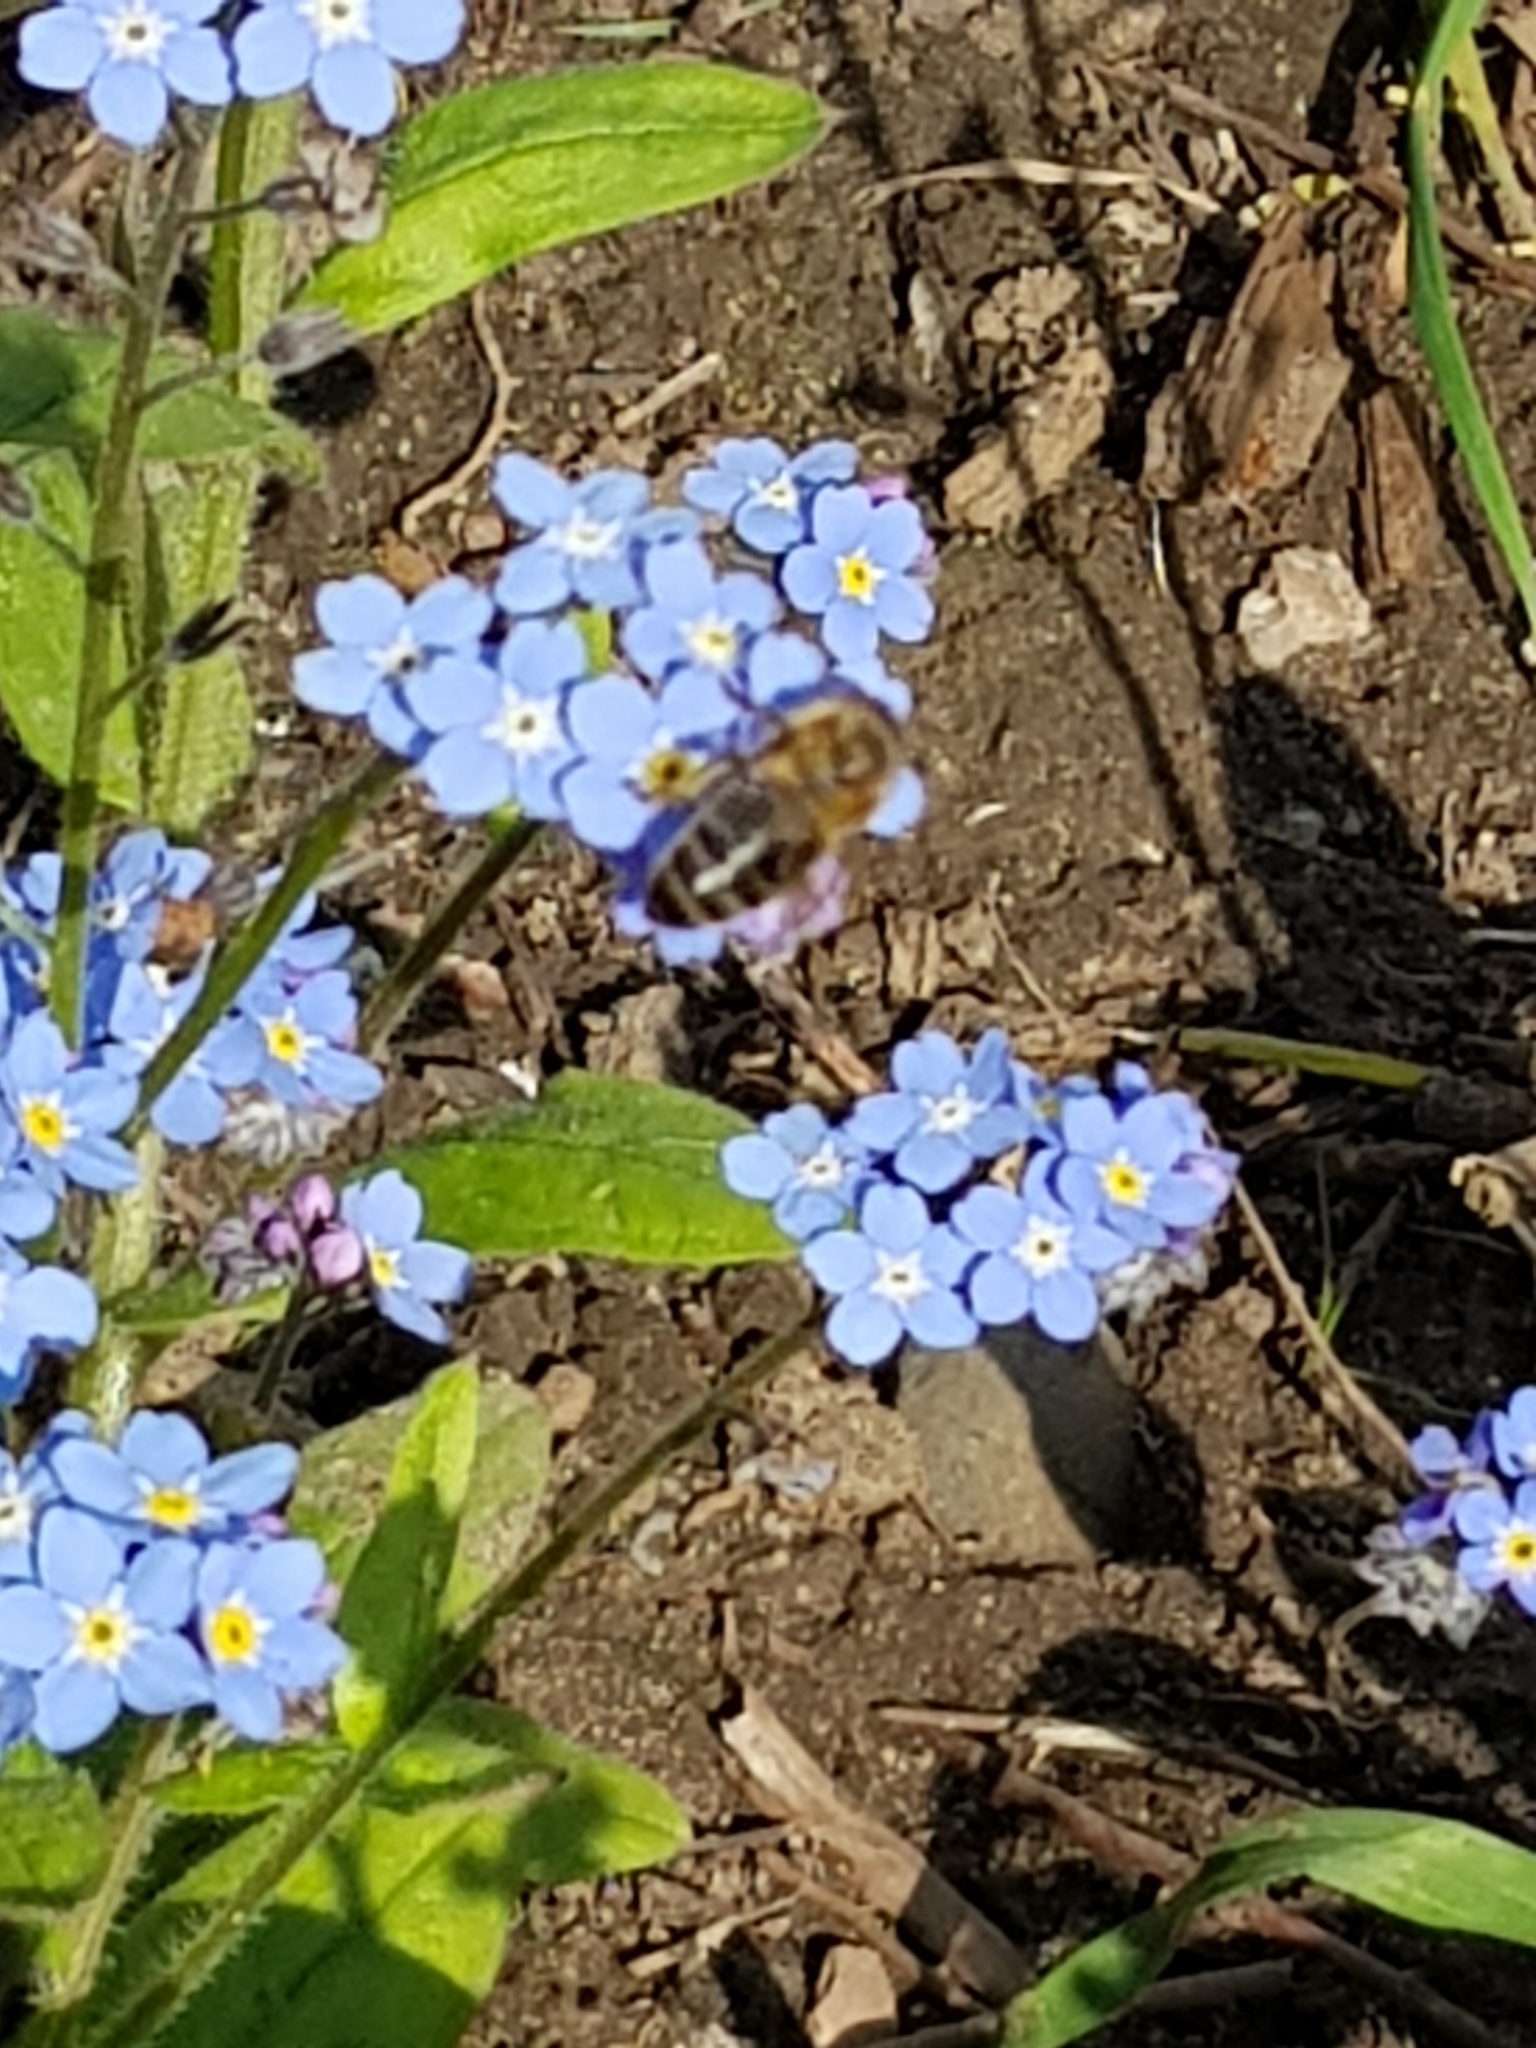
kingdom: Animalia
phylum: Arthropoda
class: Insecta
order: Hymenoptera
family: Apidae
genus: Apis
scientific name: Apis mellifera
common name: Honey bee
